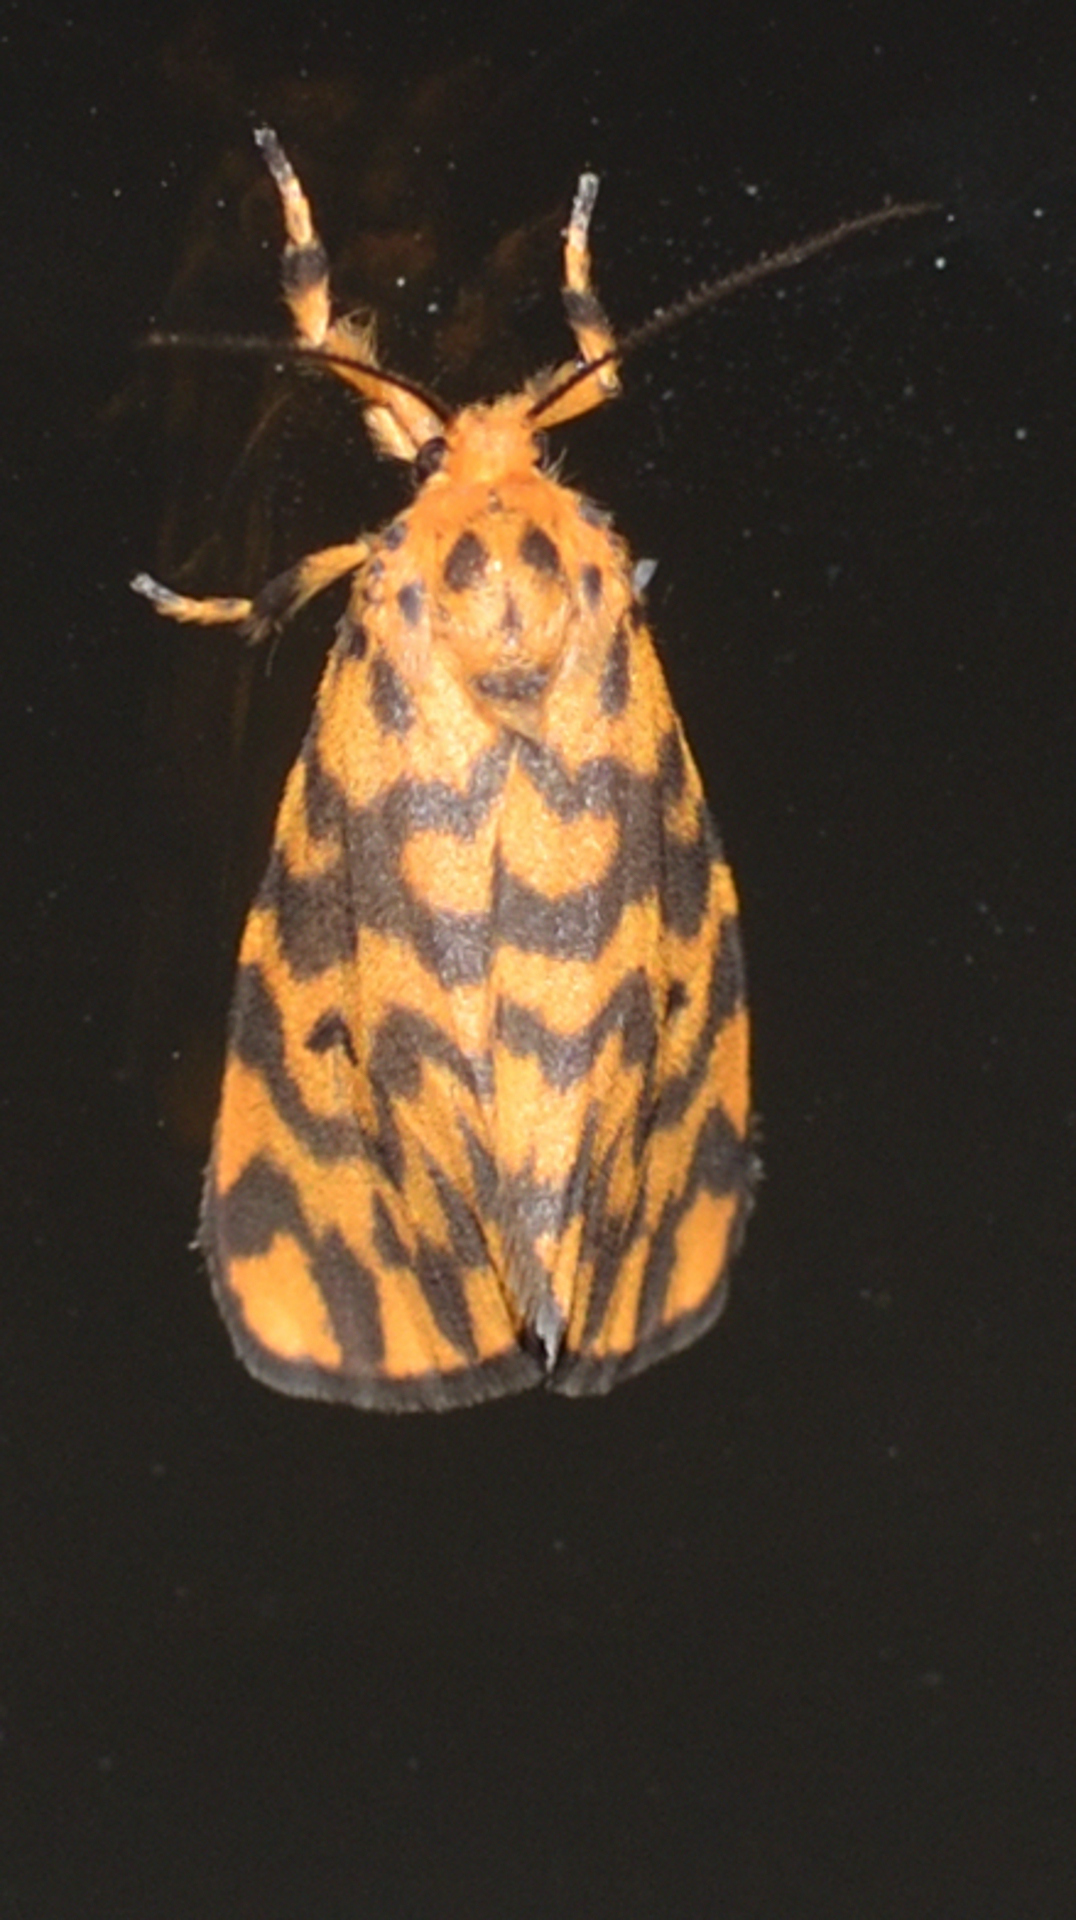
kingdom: Animalia
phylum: Arthropoda
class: Insecta
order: Lepidoptera
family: Erebidae
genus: Nepita
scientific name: Nepita conferta
